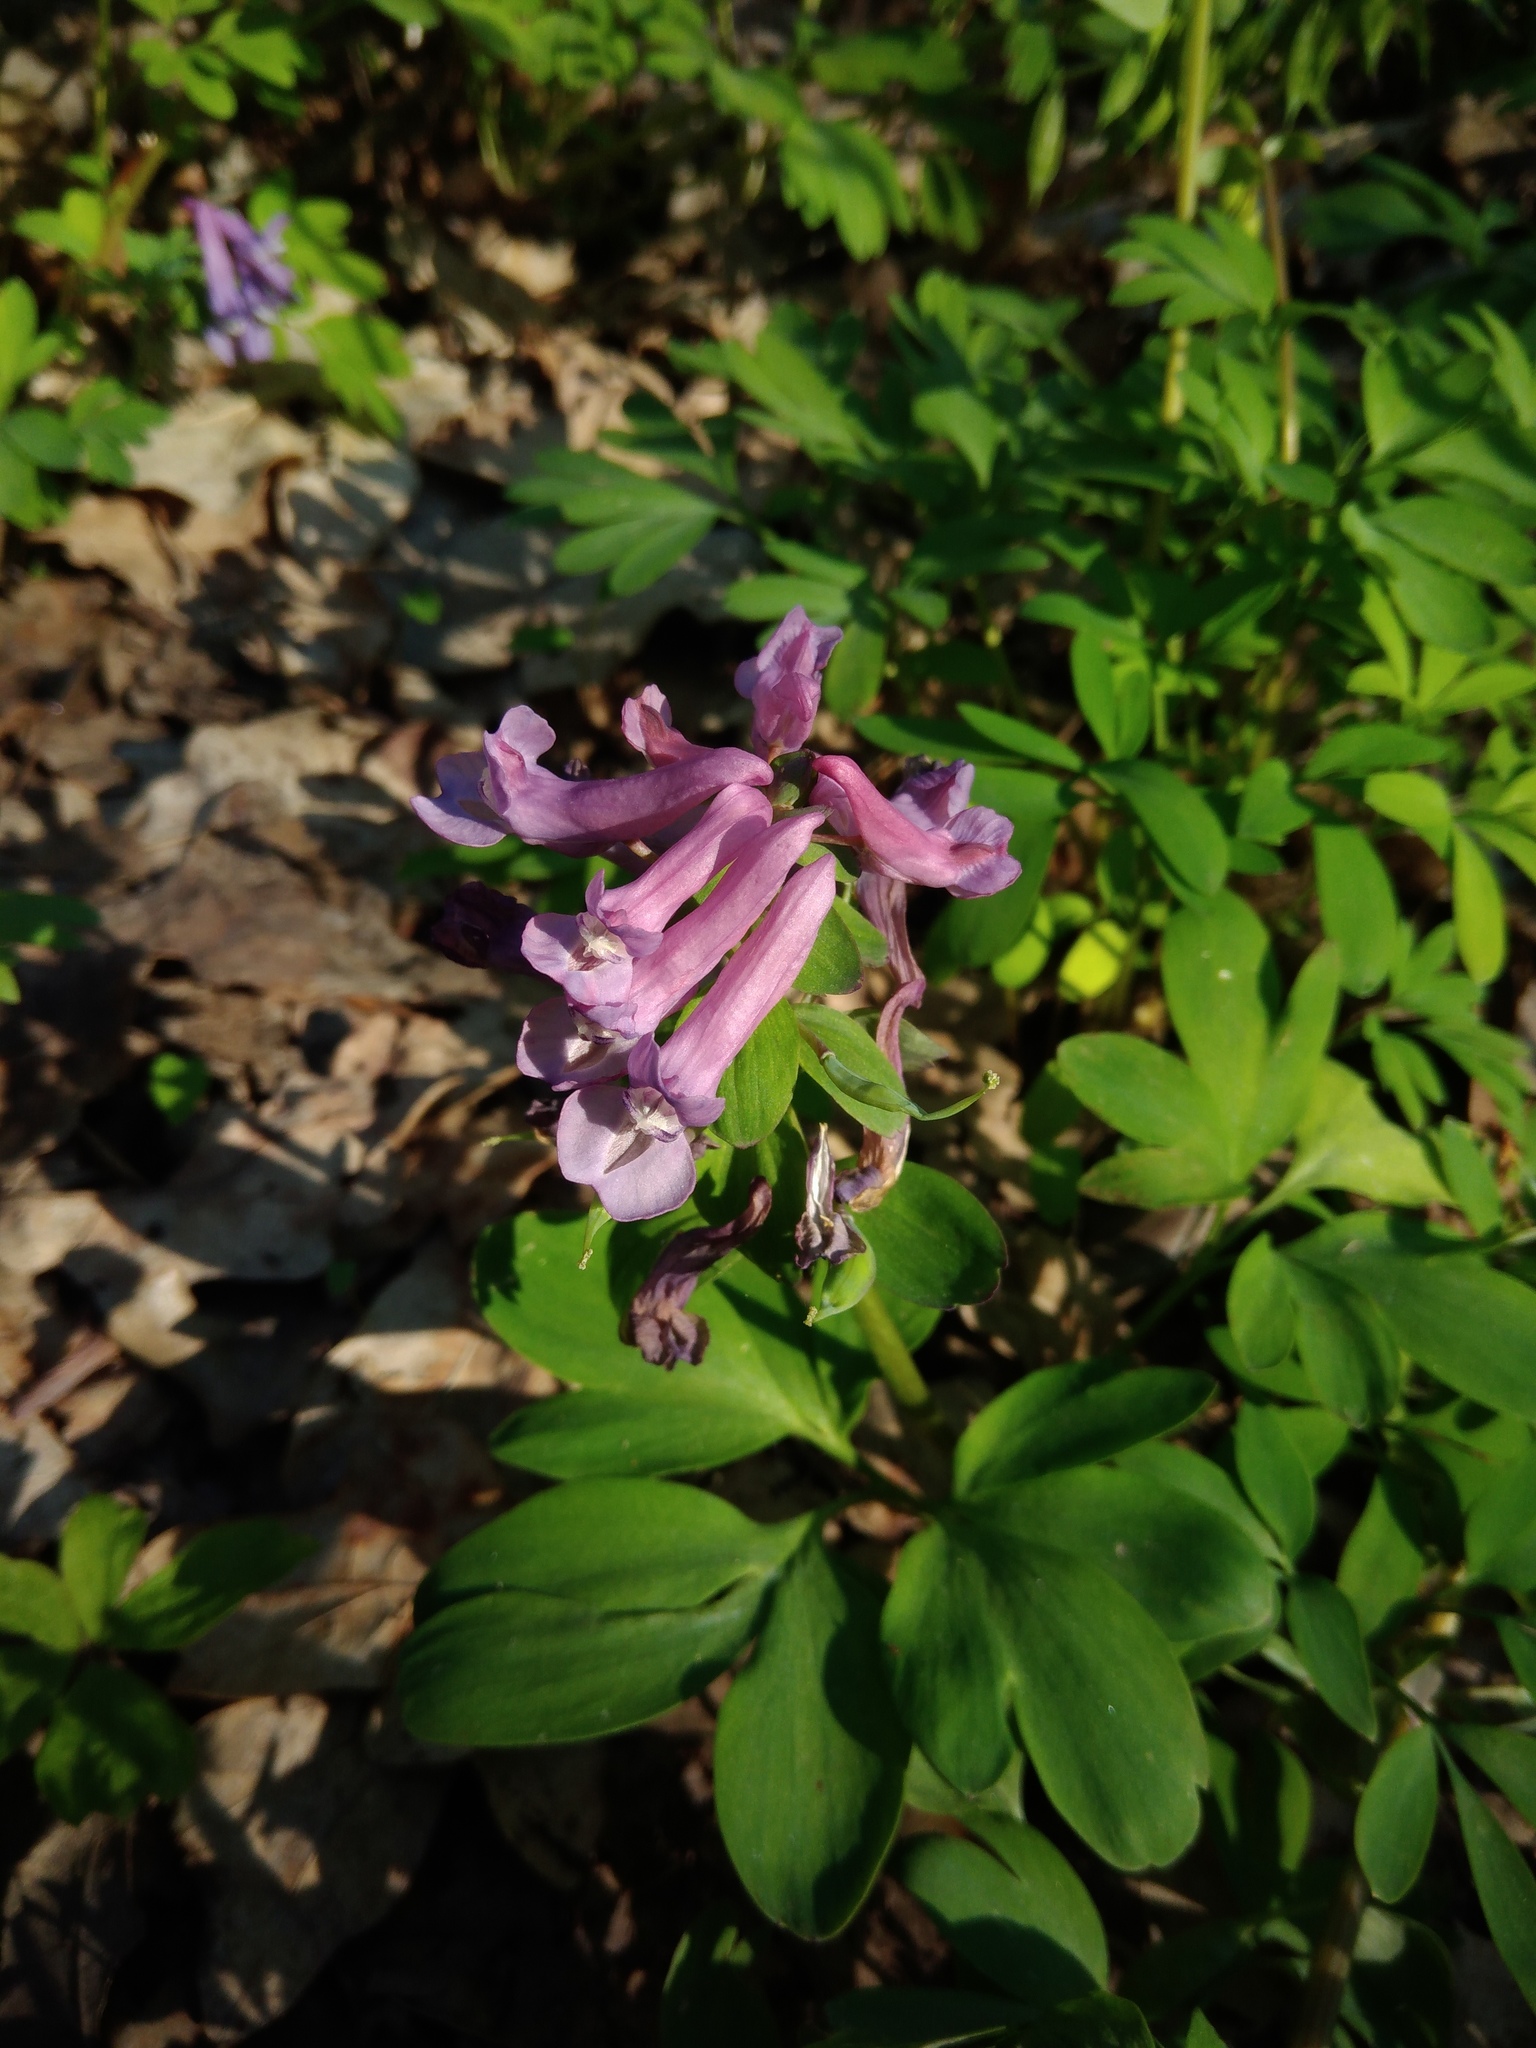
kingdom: Plantae
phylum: Tracheophyta
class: Magnoliopsida
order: Ranunculales
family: Papaveraceae
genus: Corydalis
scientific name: Corydalis solida
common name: Bird-in-a-bush
